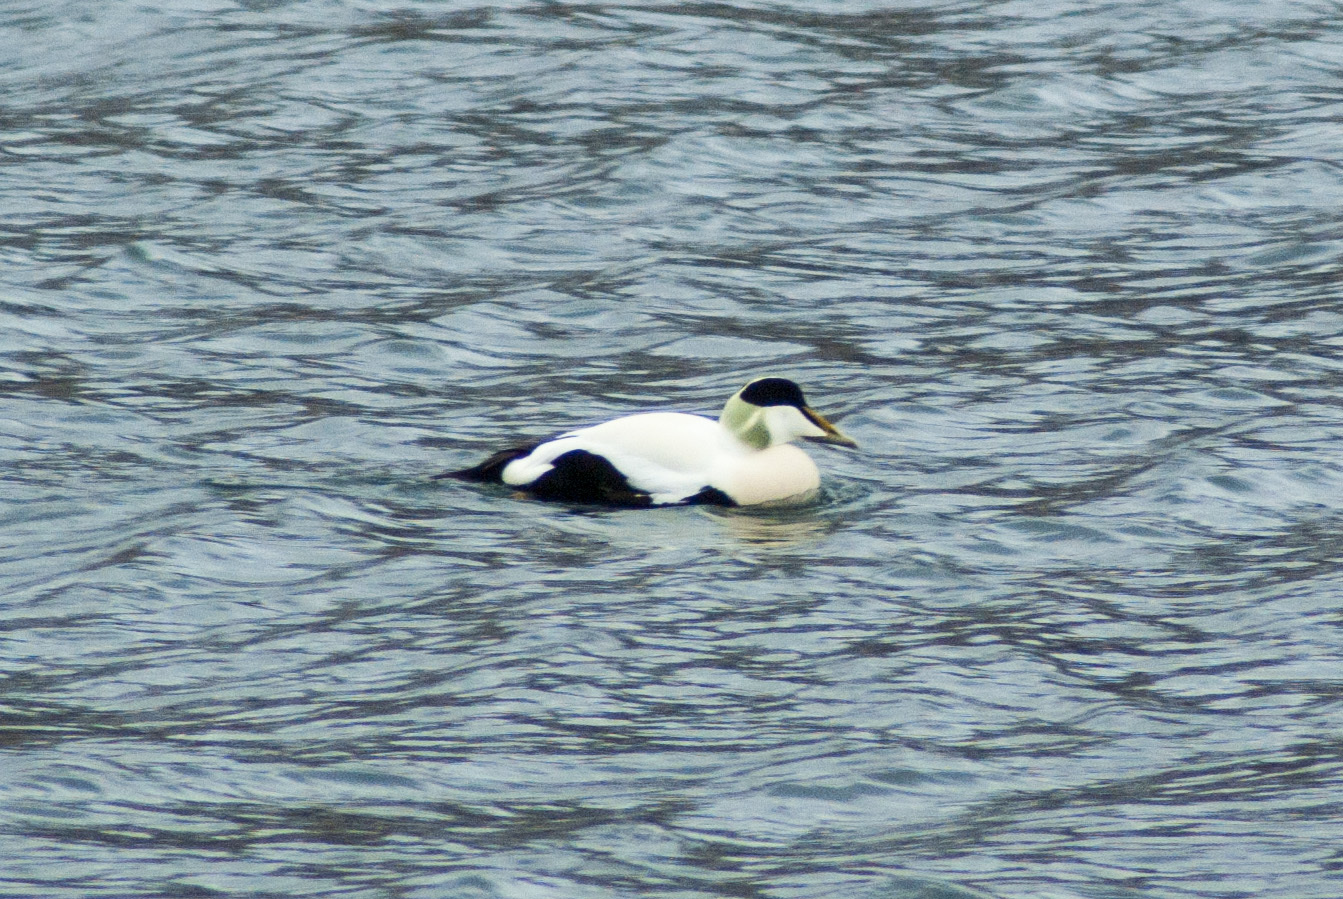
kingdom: Animalia
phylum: Chordata
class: Aves
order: Anseriformes
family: Anatidae
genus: Somateria
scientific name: Somateria mollissima
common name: Common eider
